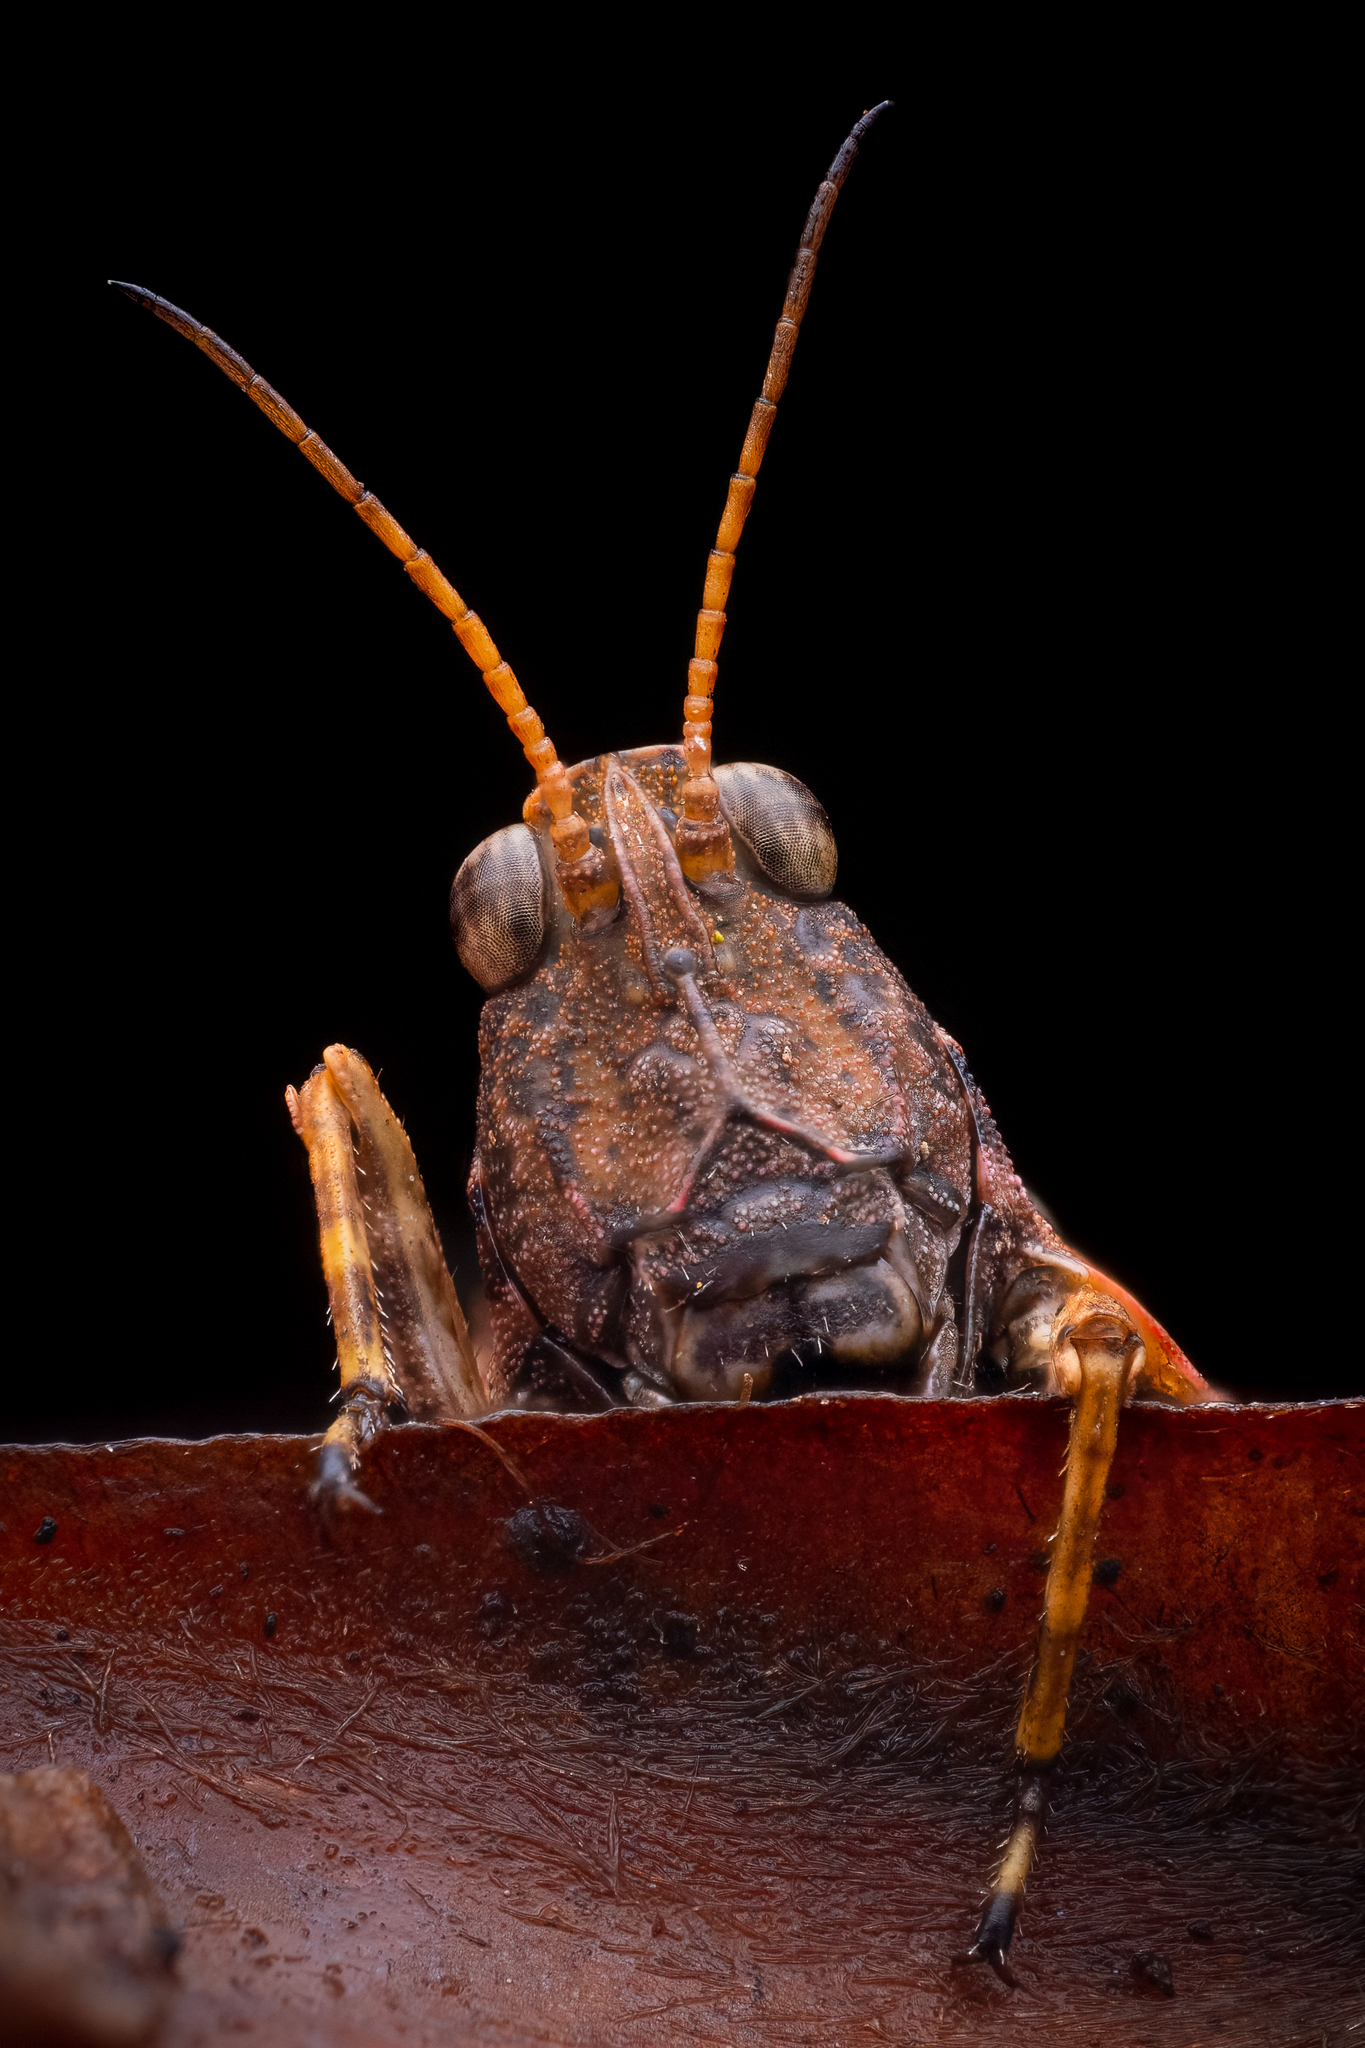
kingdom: Animalia
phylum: Arthropoda
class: Insecta
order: Orthoptera
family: Tetrigidae
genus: Tetrix
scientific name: Tetrix subulata
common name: Slender ground-hopper
